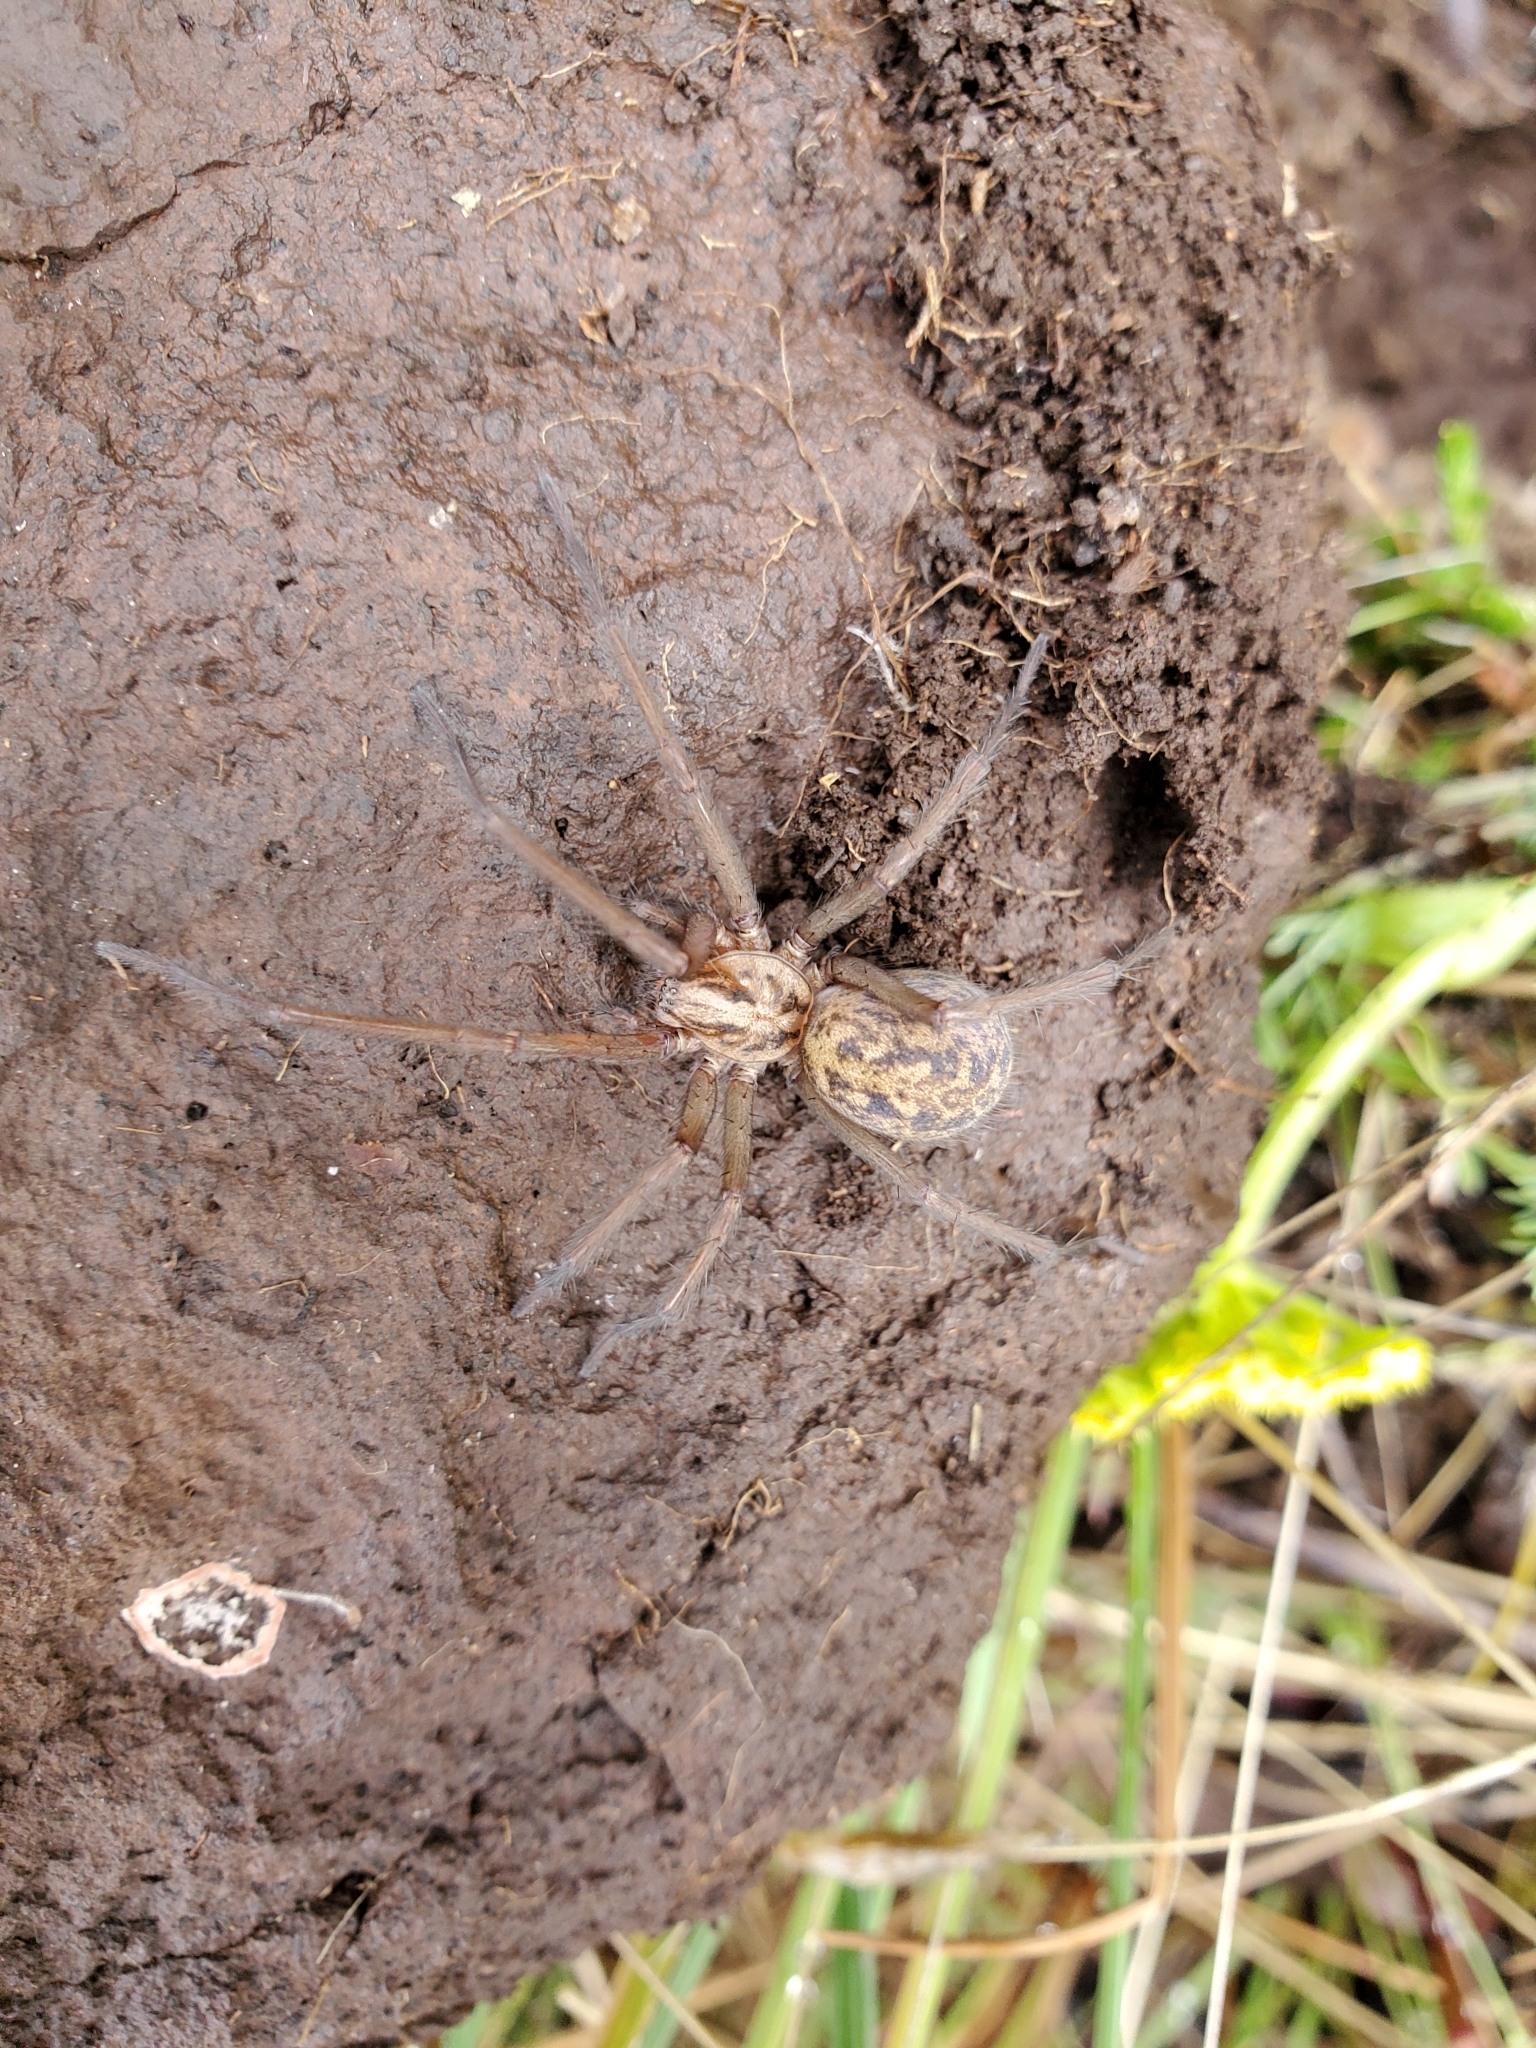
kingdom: Animalia
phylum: Arthropoda
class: Arachnida
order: Araneae
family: Agelenidae
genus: Eratigena
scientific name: Eratigena duellica
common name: Giant house spider
